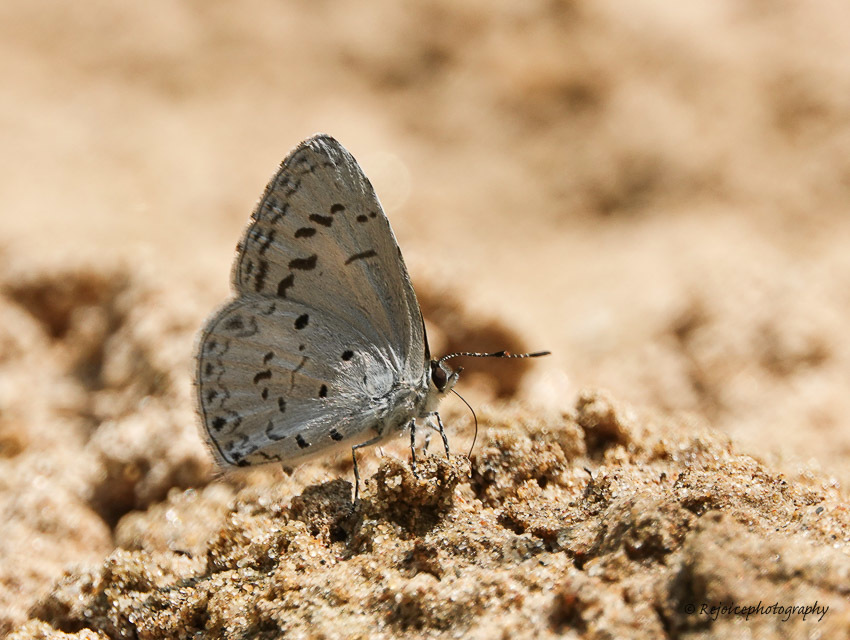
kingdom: Animalia
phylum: Arthropoda
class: Insecta
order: Lepidoptera
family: Lycaenidae
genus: Acytolepis
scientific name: Acytolepis puspa
